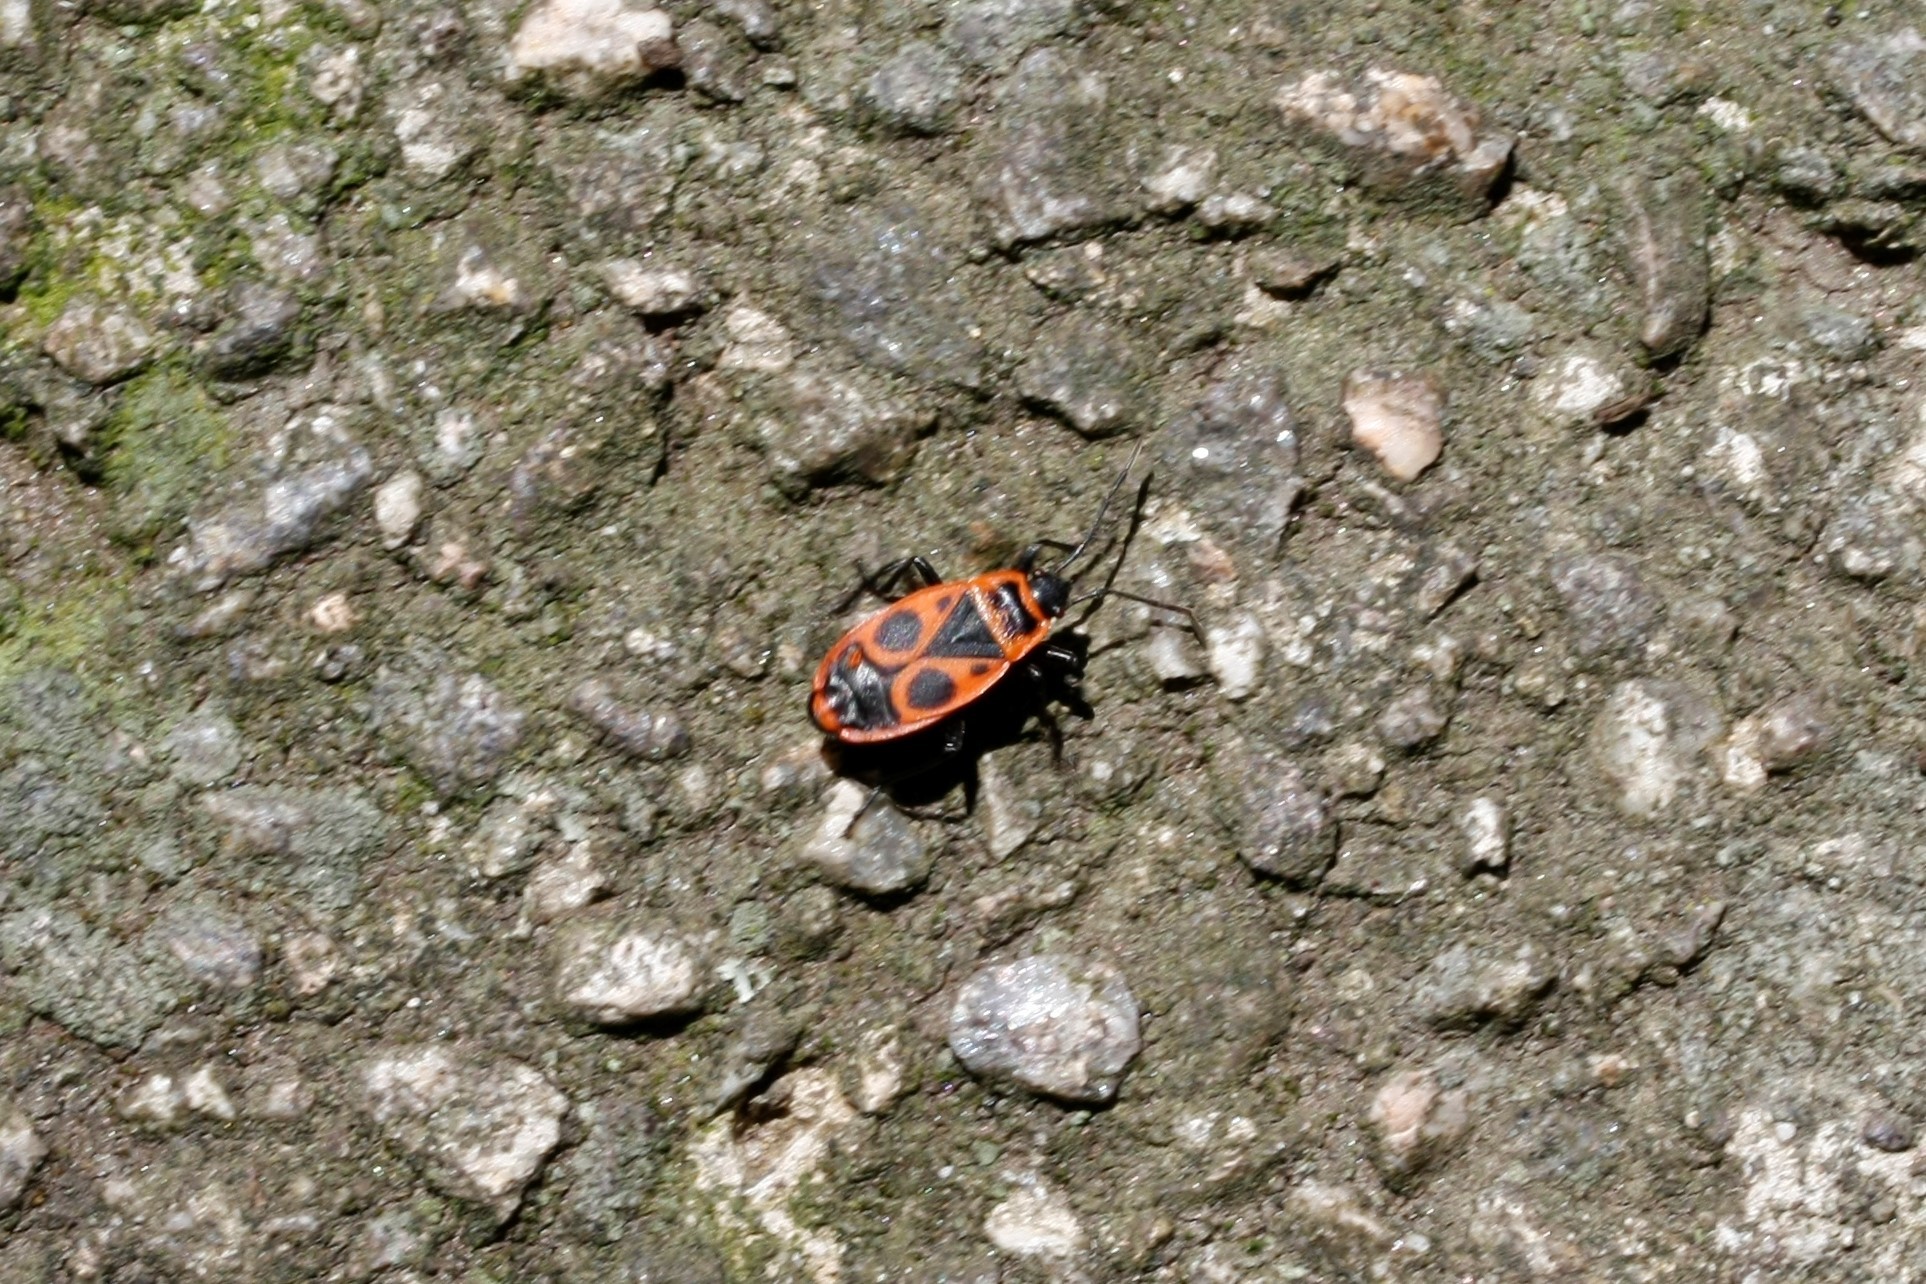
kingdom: Animalia
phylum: Arthropoda
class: Insecta
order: Hemiptera
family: Pyrrhocoridae
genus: Pyrrhocoris
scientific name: Pyrrhocoris apterus
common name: Firebug
